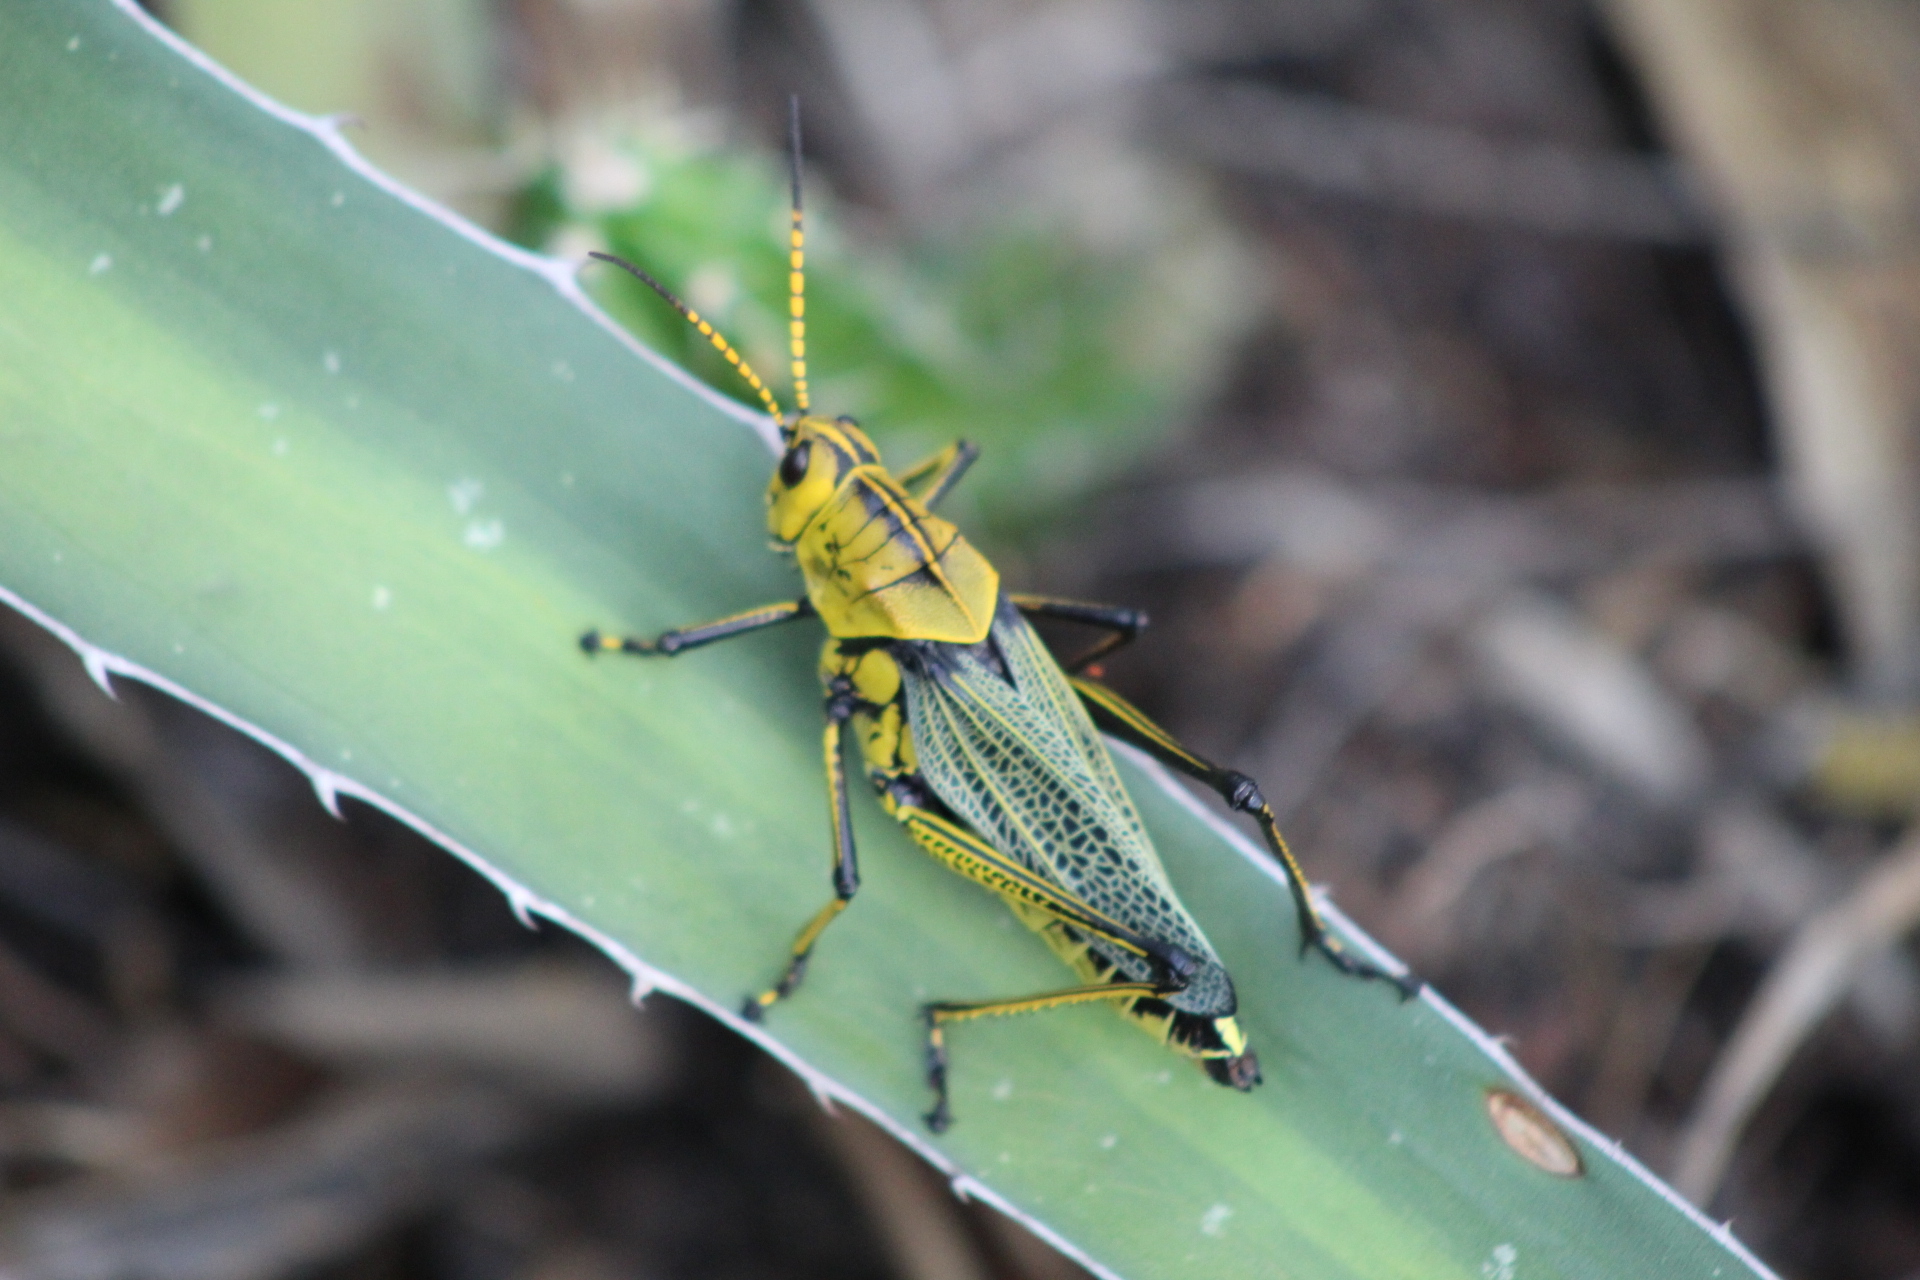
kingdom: Animalia
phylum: Arthropoda
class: Insecta
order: Orthoptera
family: Romaleidae
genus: Romalea
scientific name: Romalea
